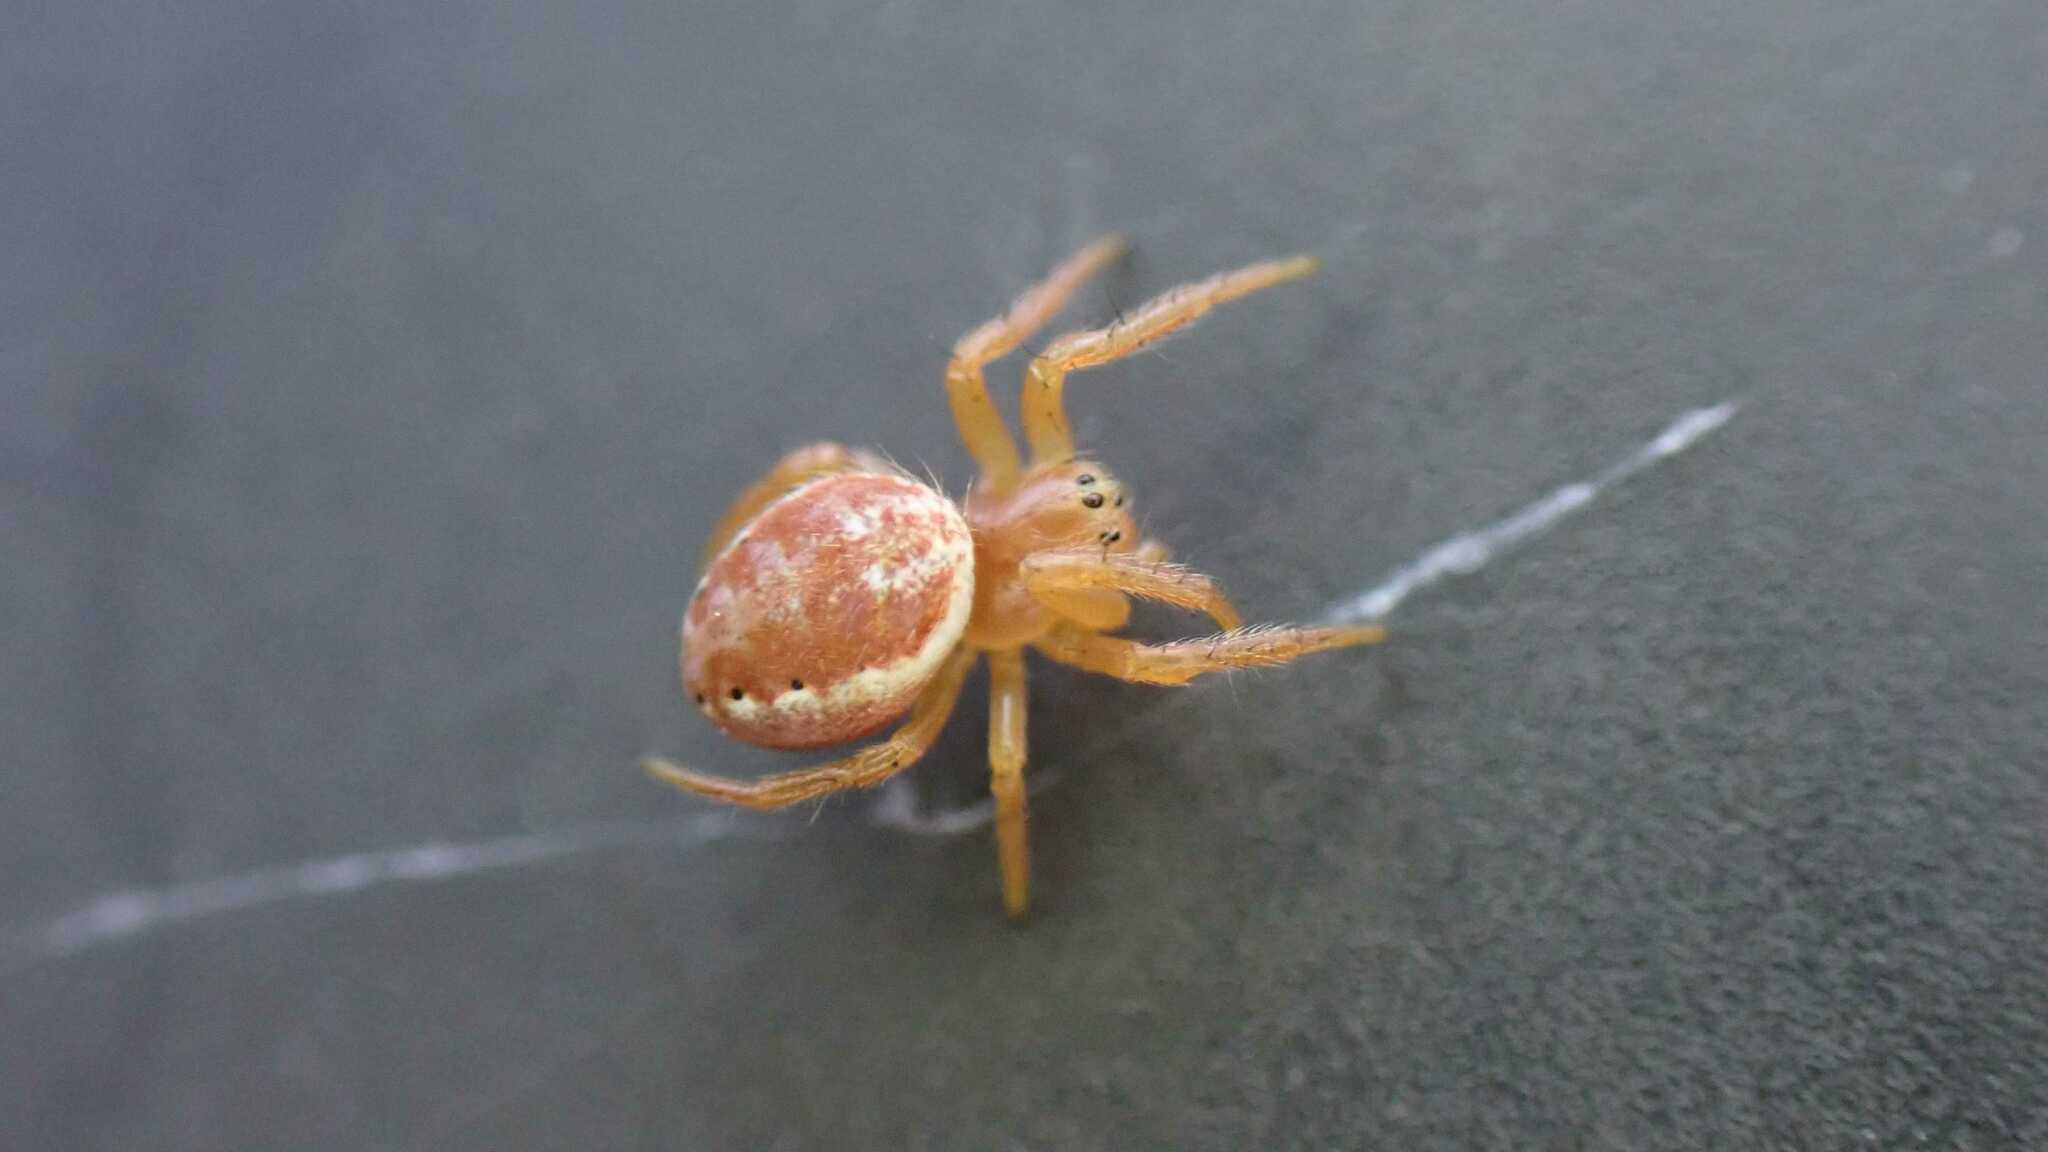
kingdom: Animalia
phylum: Arthropoda
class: Arachnida
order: Araneae
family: Araneidae
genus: Araniella
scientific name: Araniella
